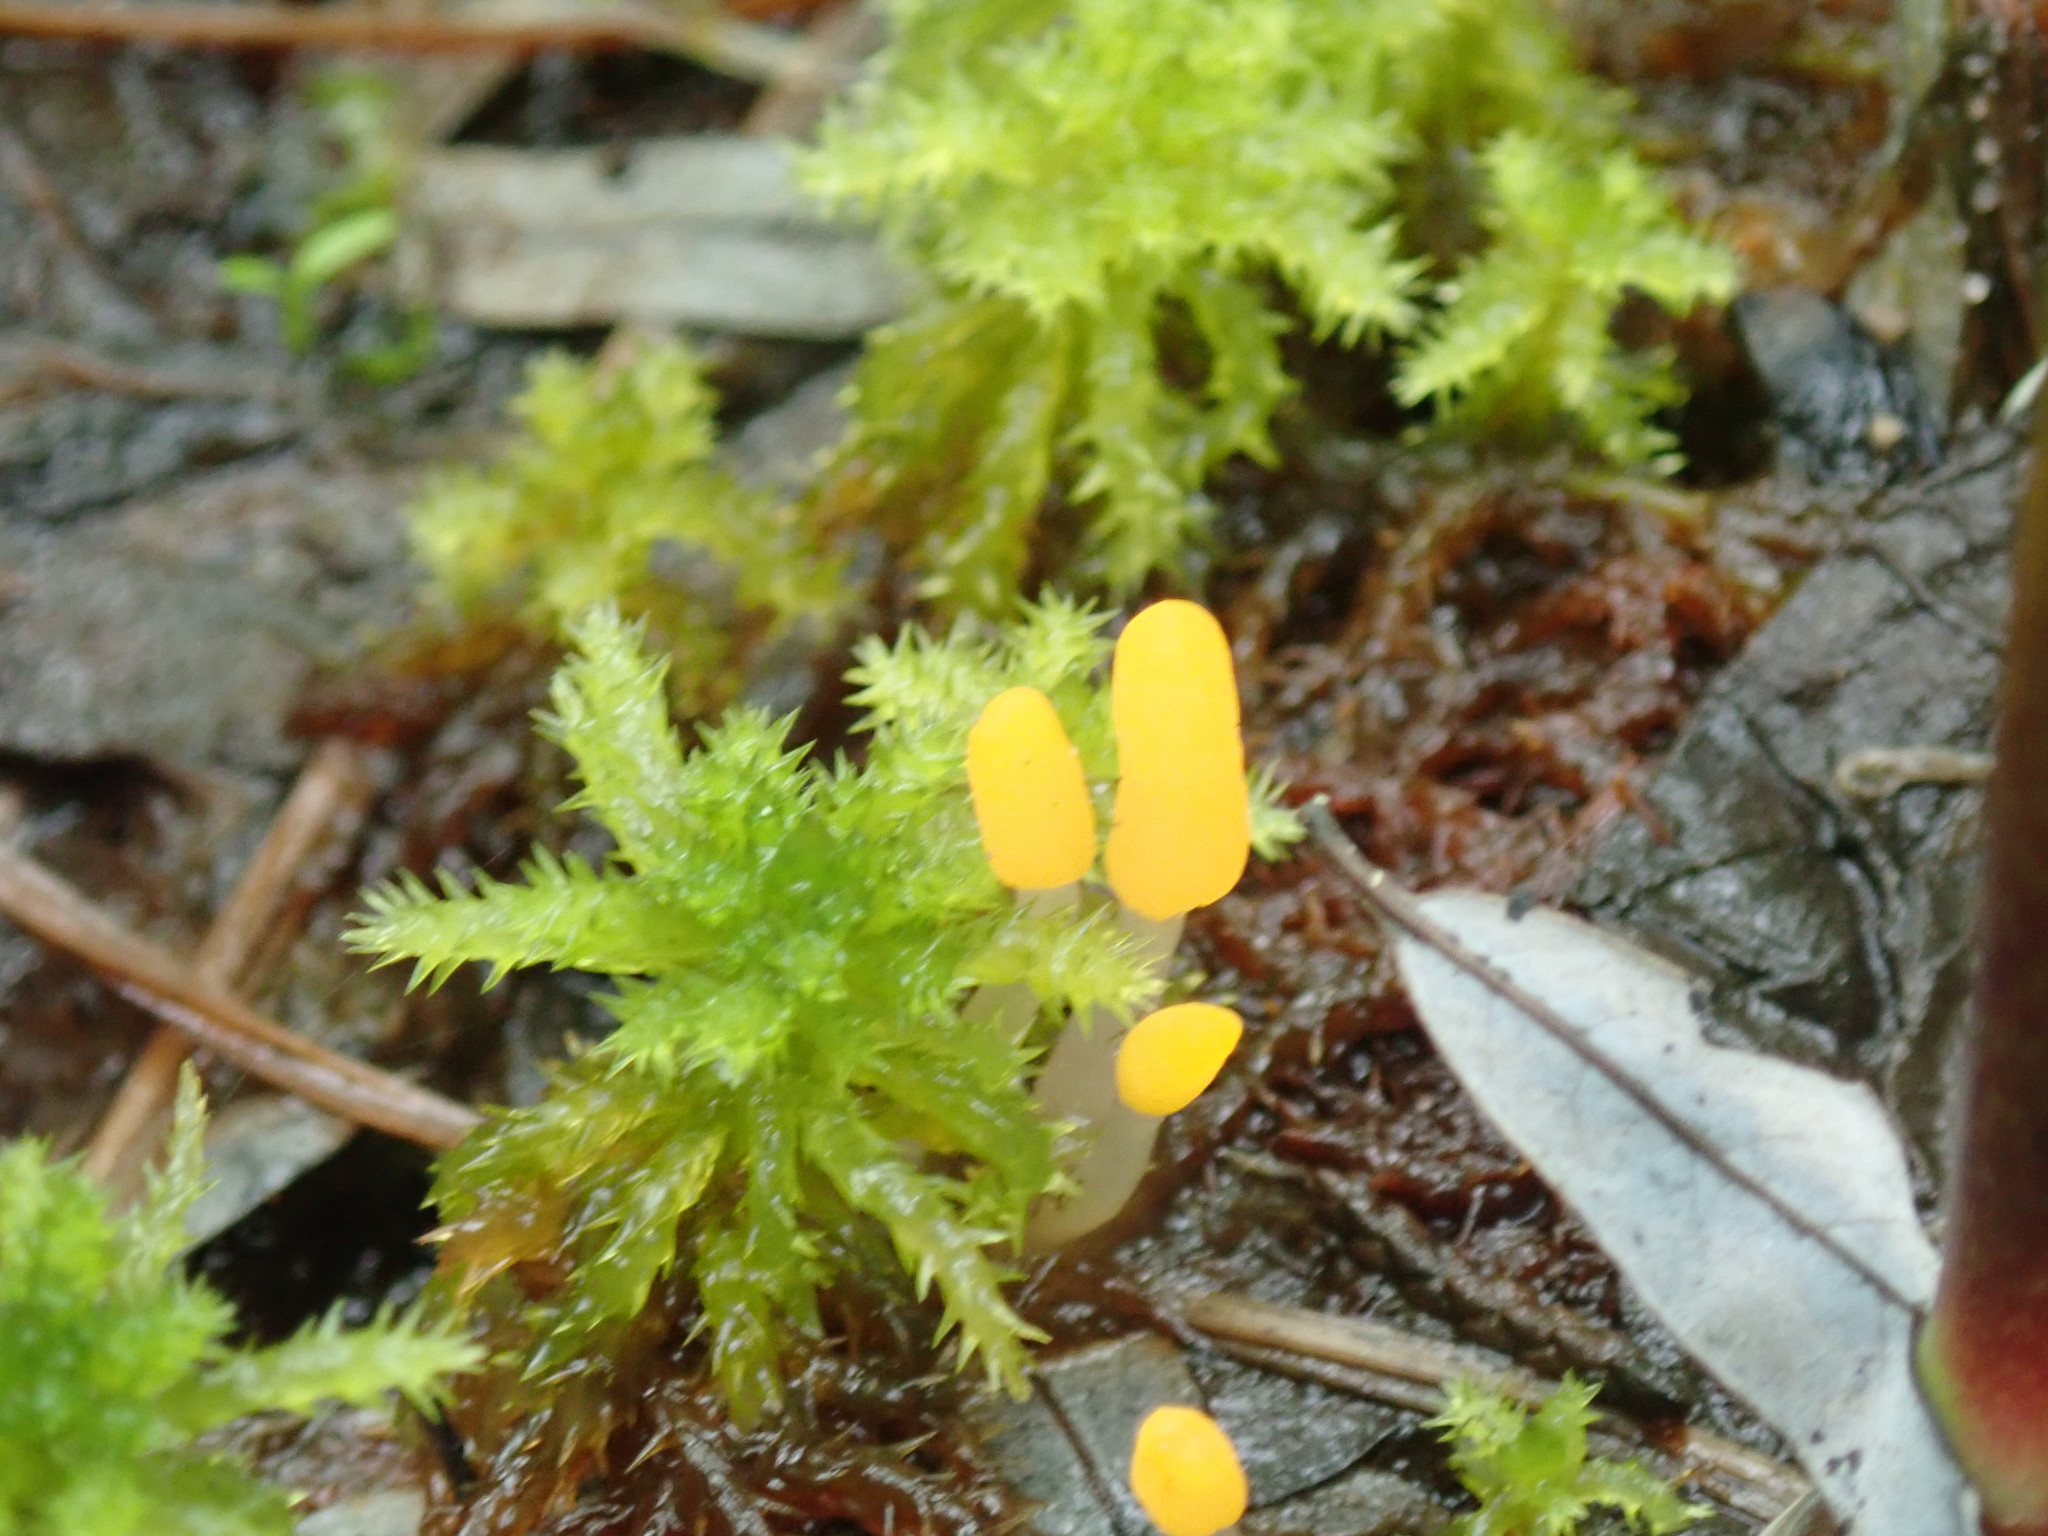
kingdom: Fungi
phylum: Ascomycota
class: Leotiomycetes
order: Helotiales
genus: Mitrula
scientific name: Mitrula
